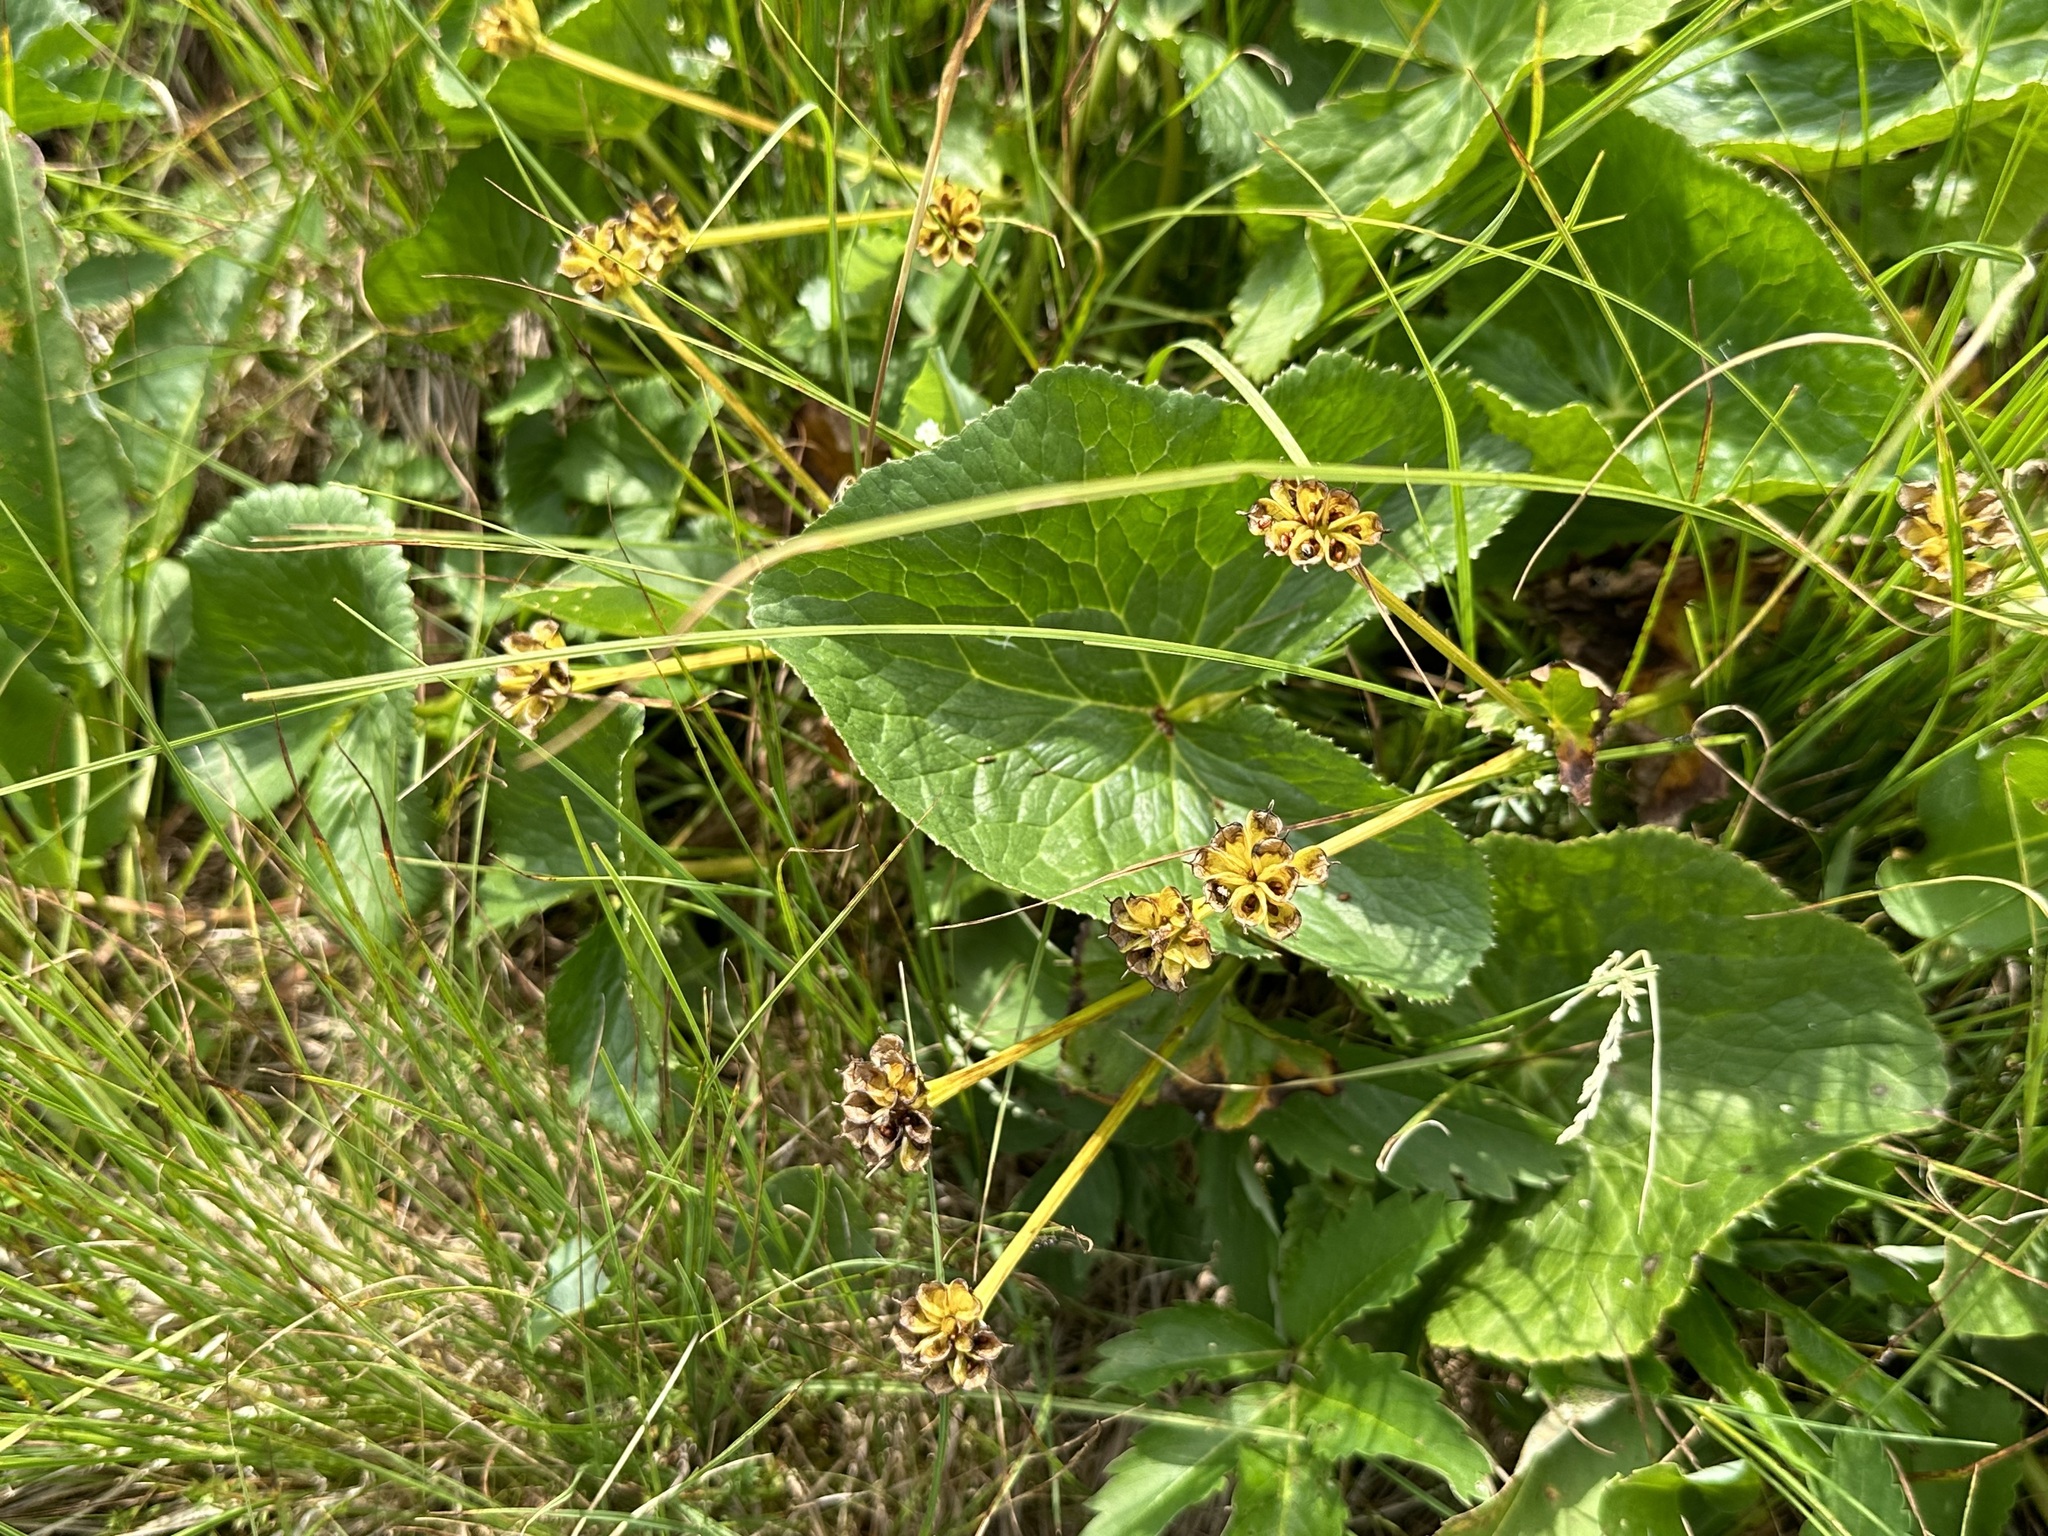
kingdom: Plantae
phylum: Tracheophyta
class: Magnoliopsida
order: Ranunculales
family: Ranunculaceae
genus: Caltha
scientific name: Caltha palustris
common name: Marsh marigold
